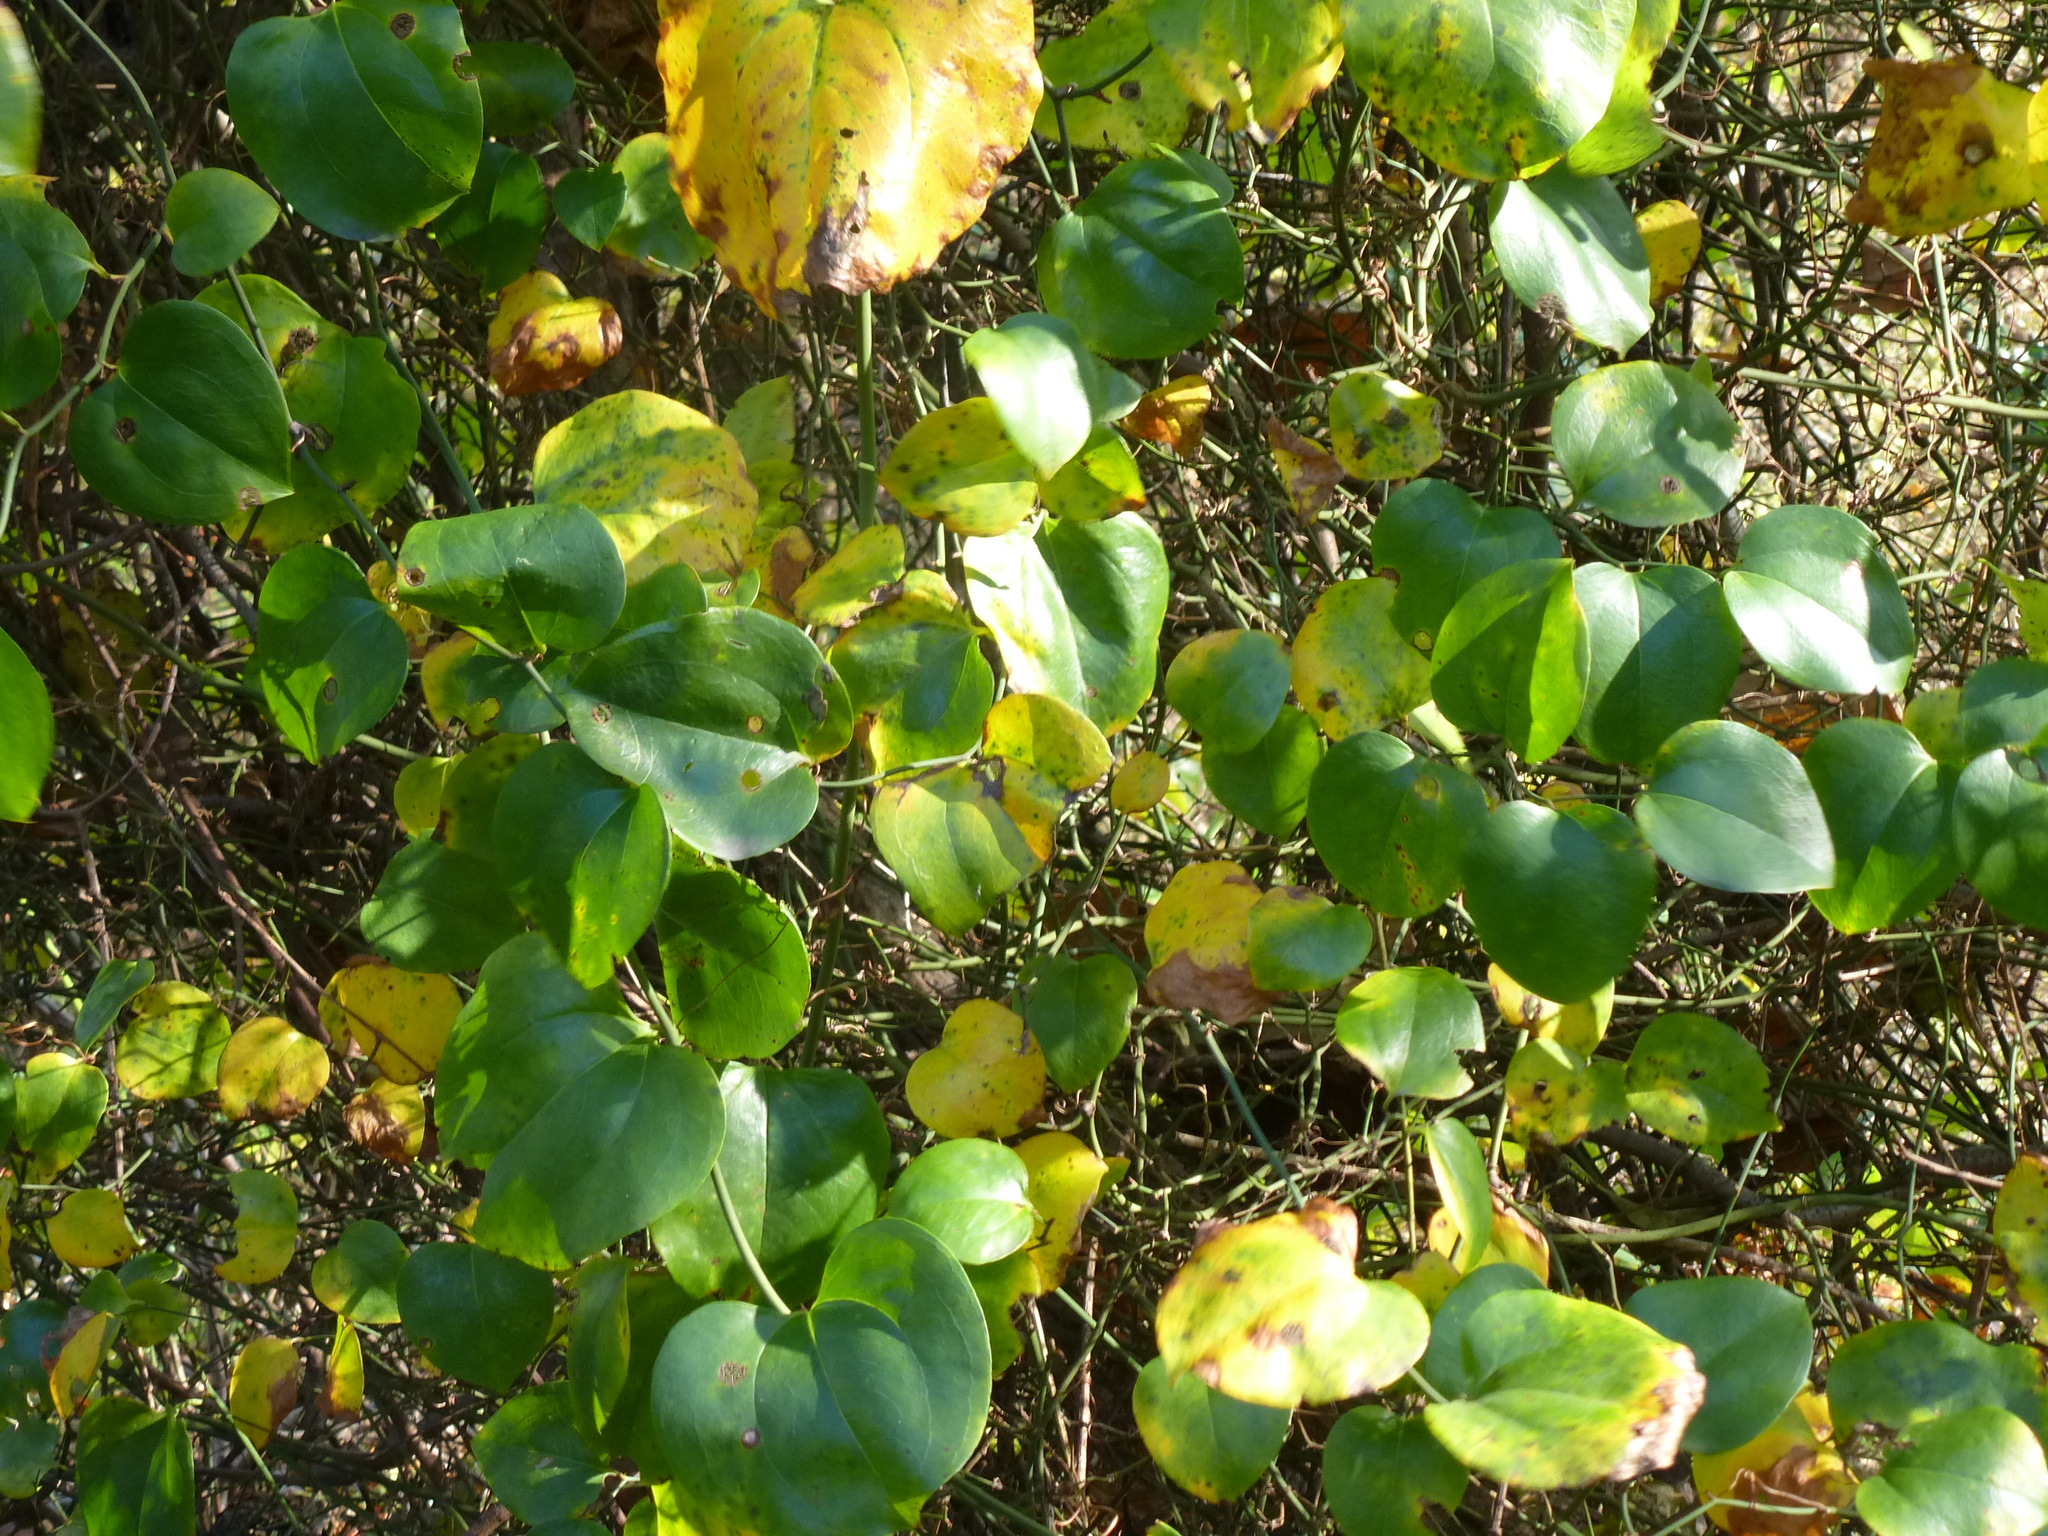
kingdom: Plantae
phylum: Tracheophyta
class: Liliopsida
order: Liliales
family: Smilacaceae
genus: Smilax
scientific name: Smilax rotundifolia
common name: Bullbriar
